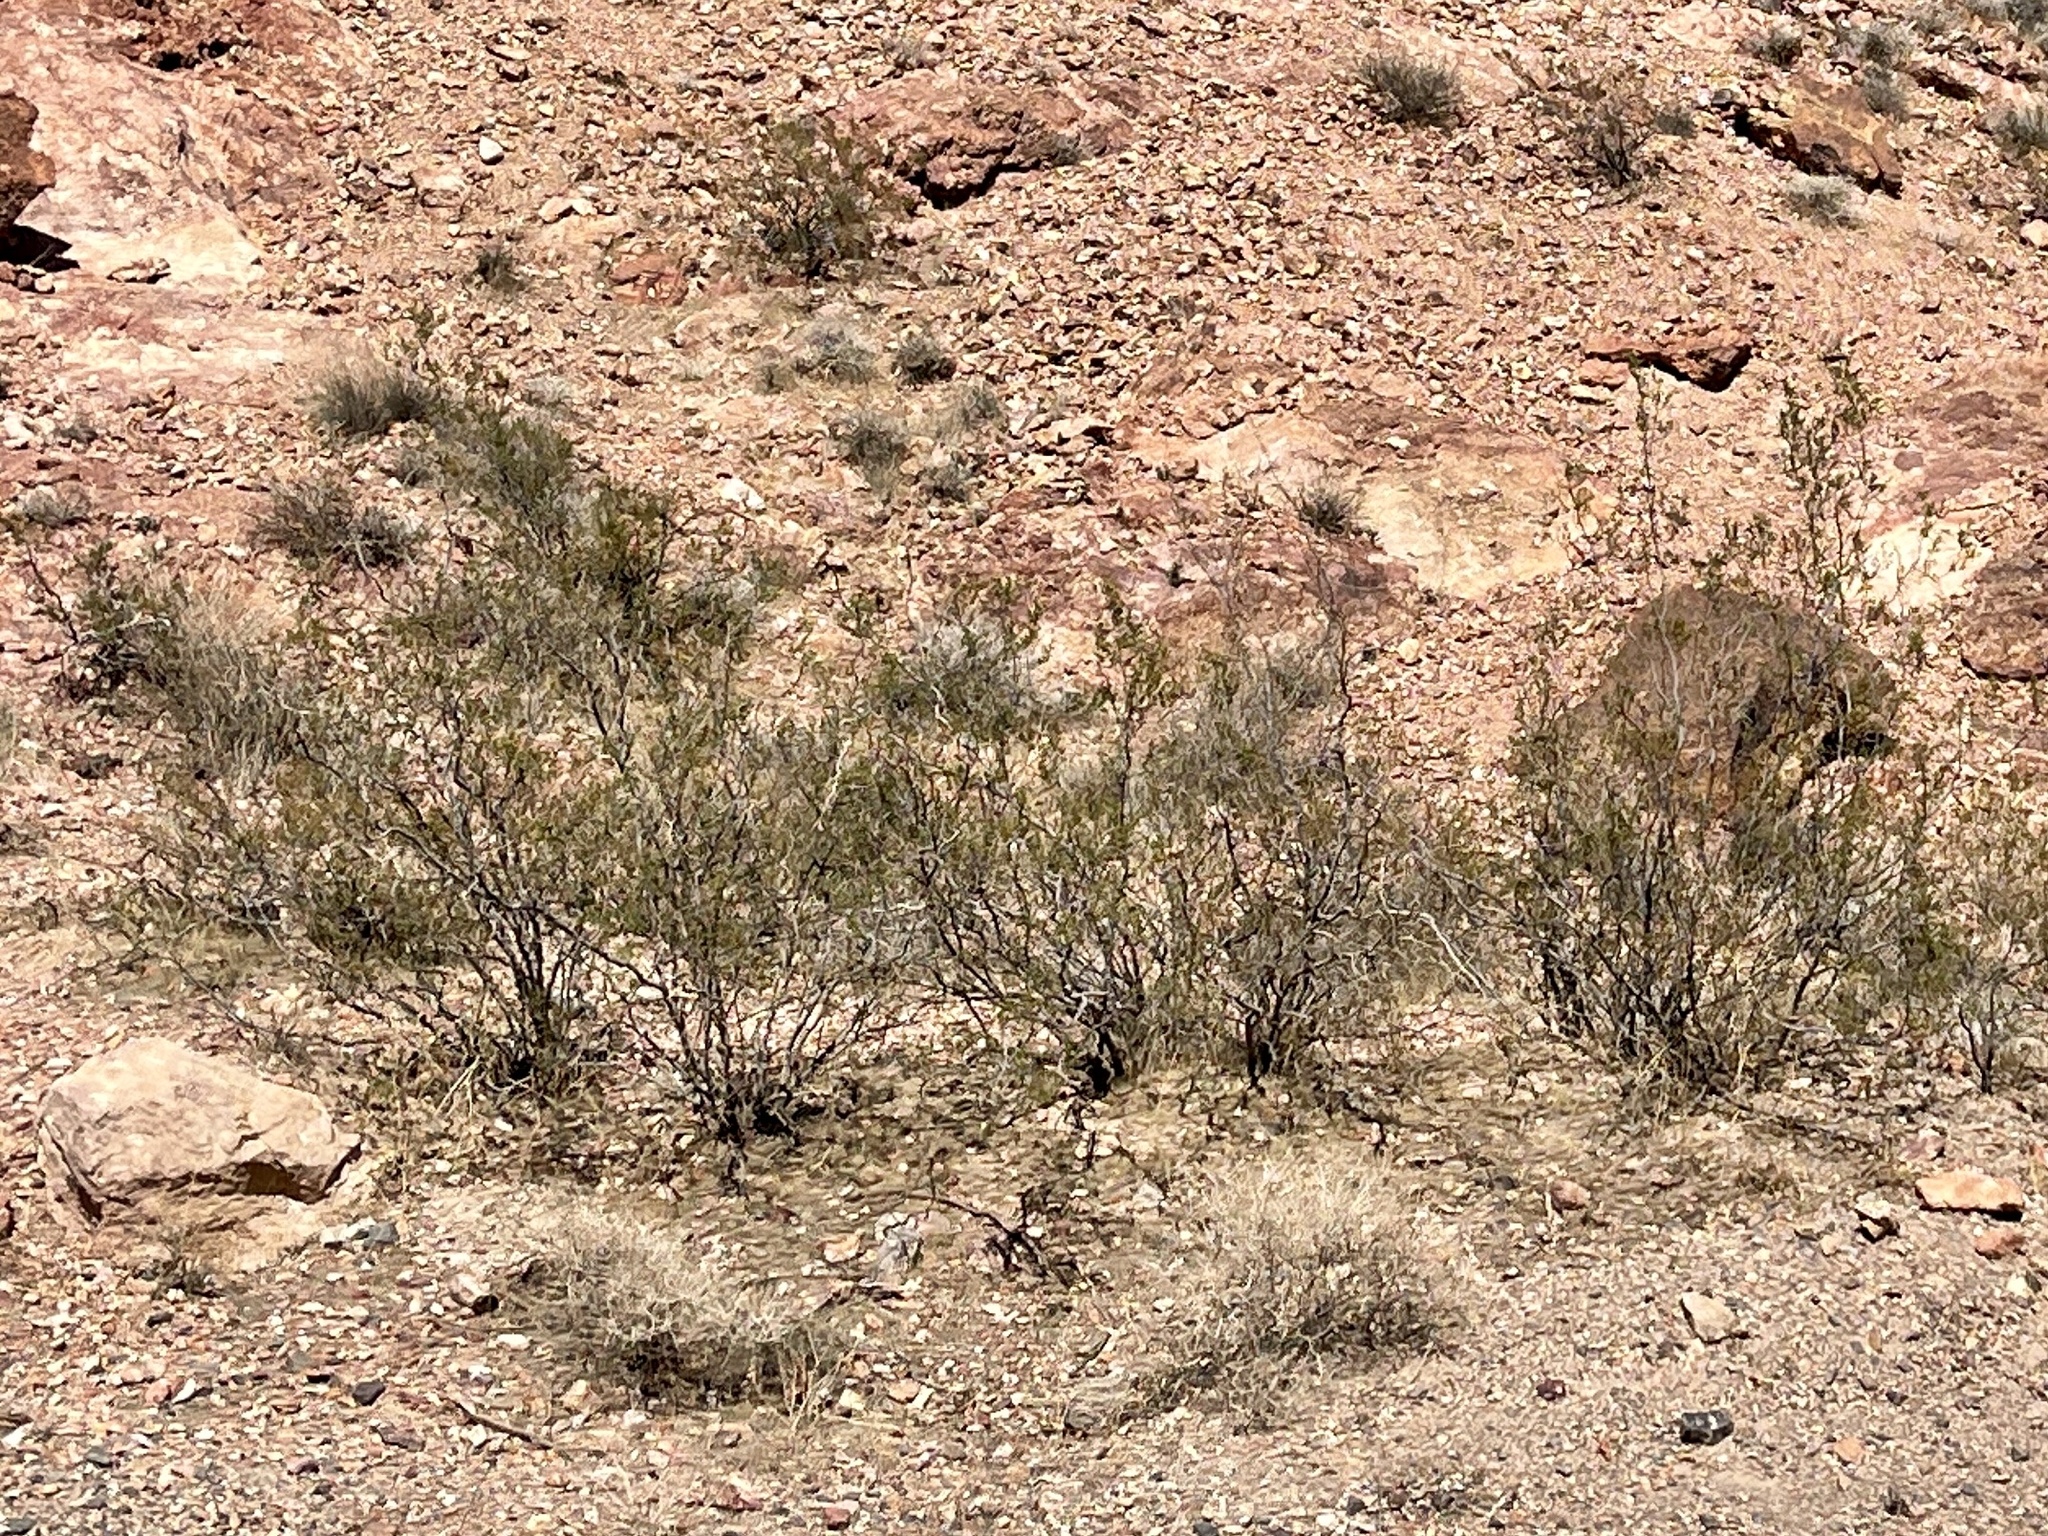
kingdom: Plantae
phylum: Tracheophyta
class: Magnoliopsida
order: Zygophyllales
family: Zygophyllaceae
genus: Larrea
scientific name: Larrea tridentata
